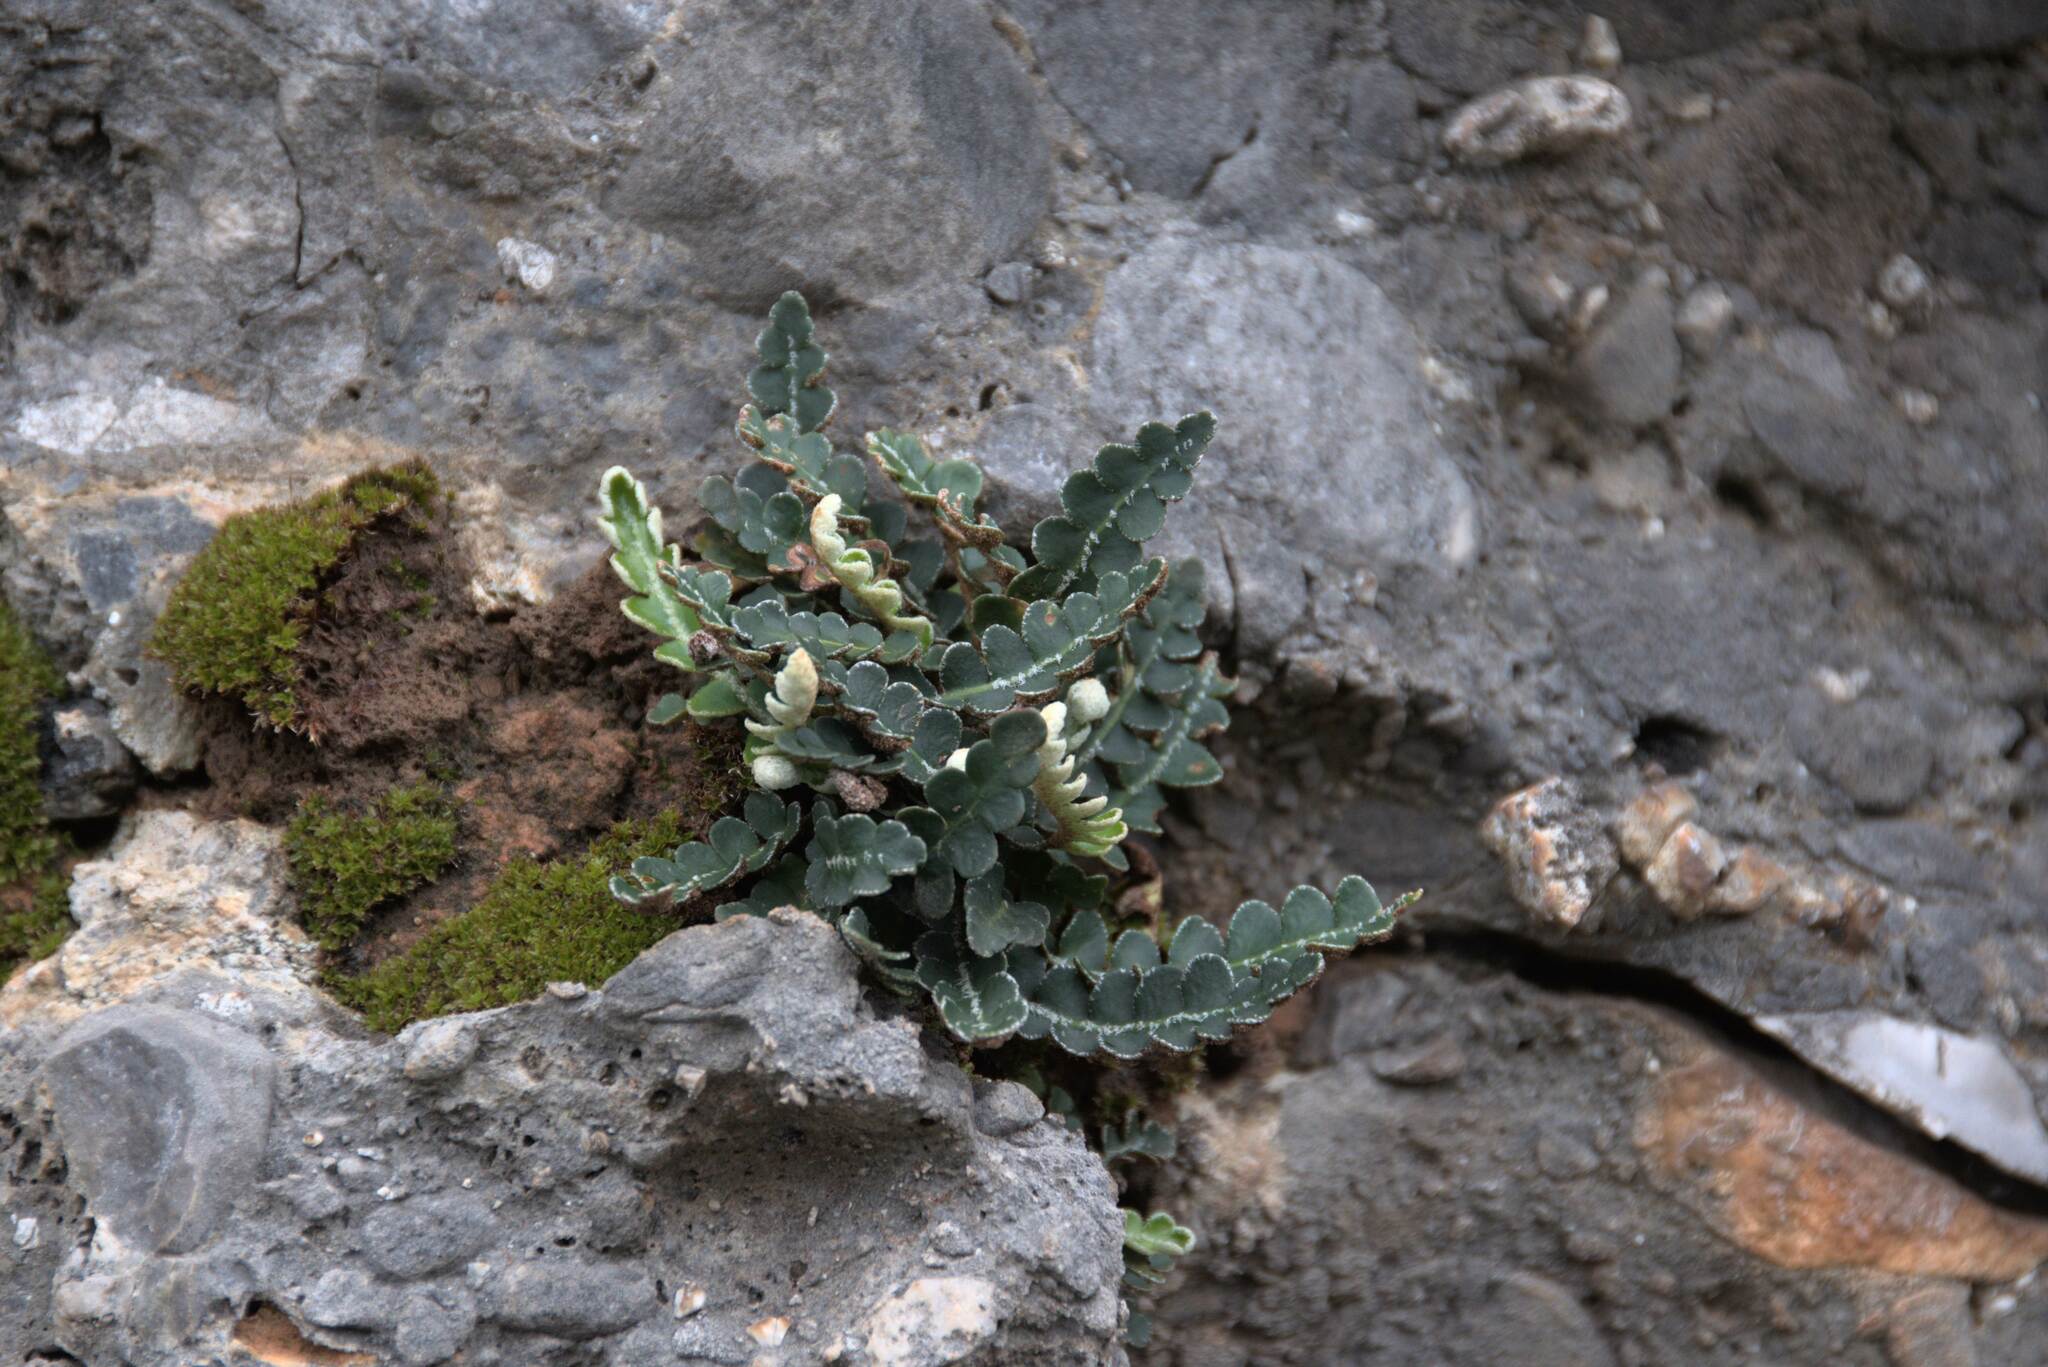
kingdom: Plantae
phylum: Tracheophyta
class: Polypodiopsida
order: Polypodiales
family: Aspleniaceae
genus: Asplenium
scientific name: Asplenium ceterach
